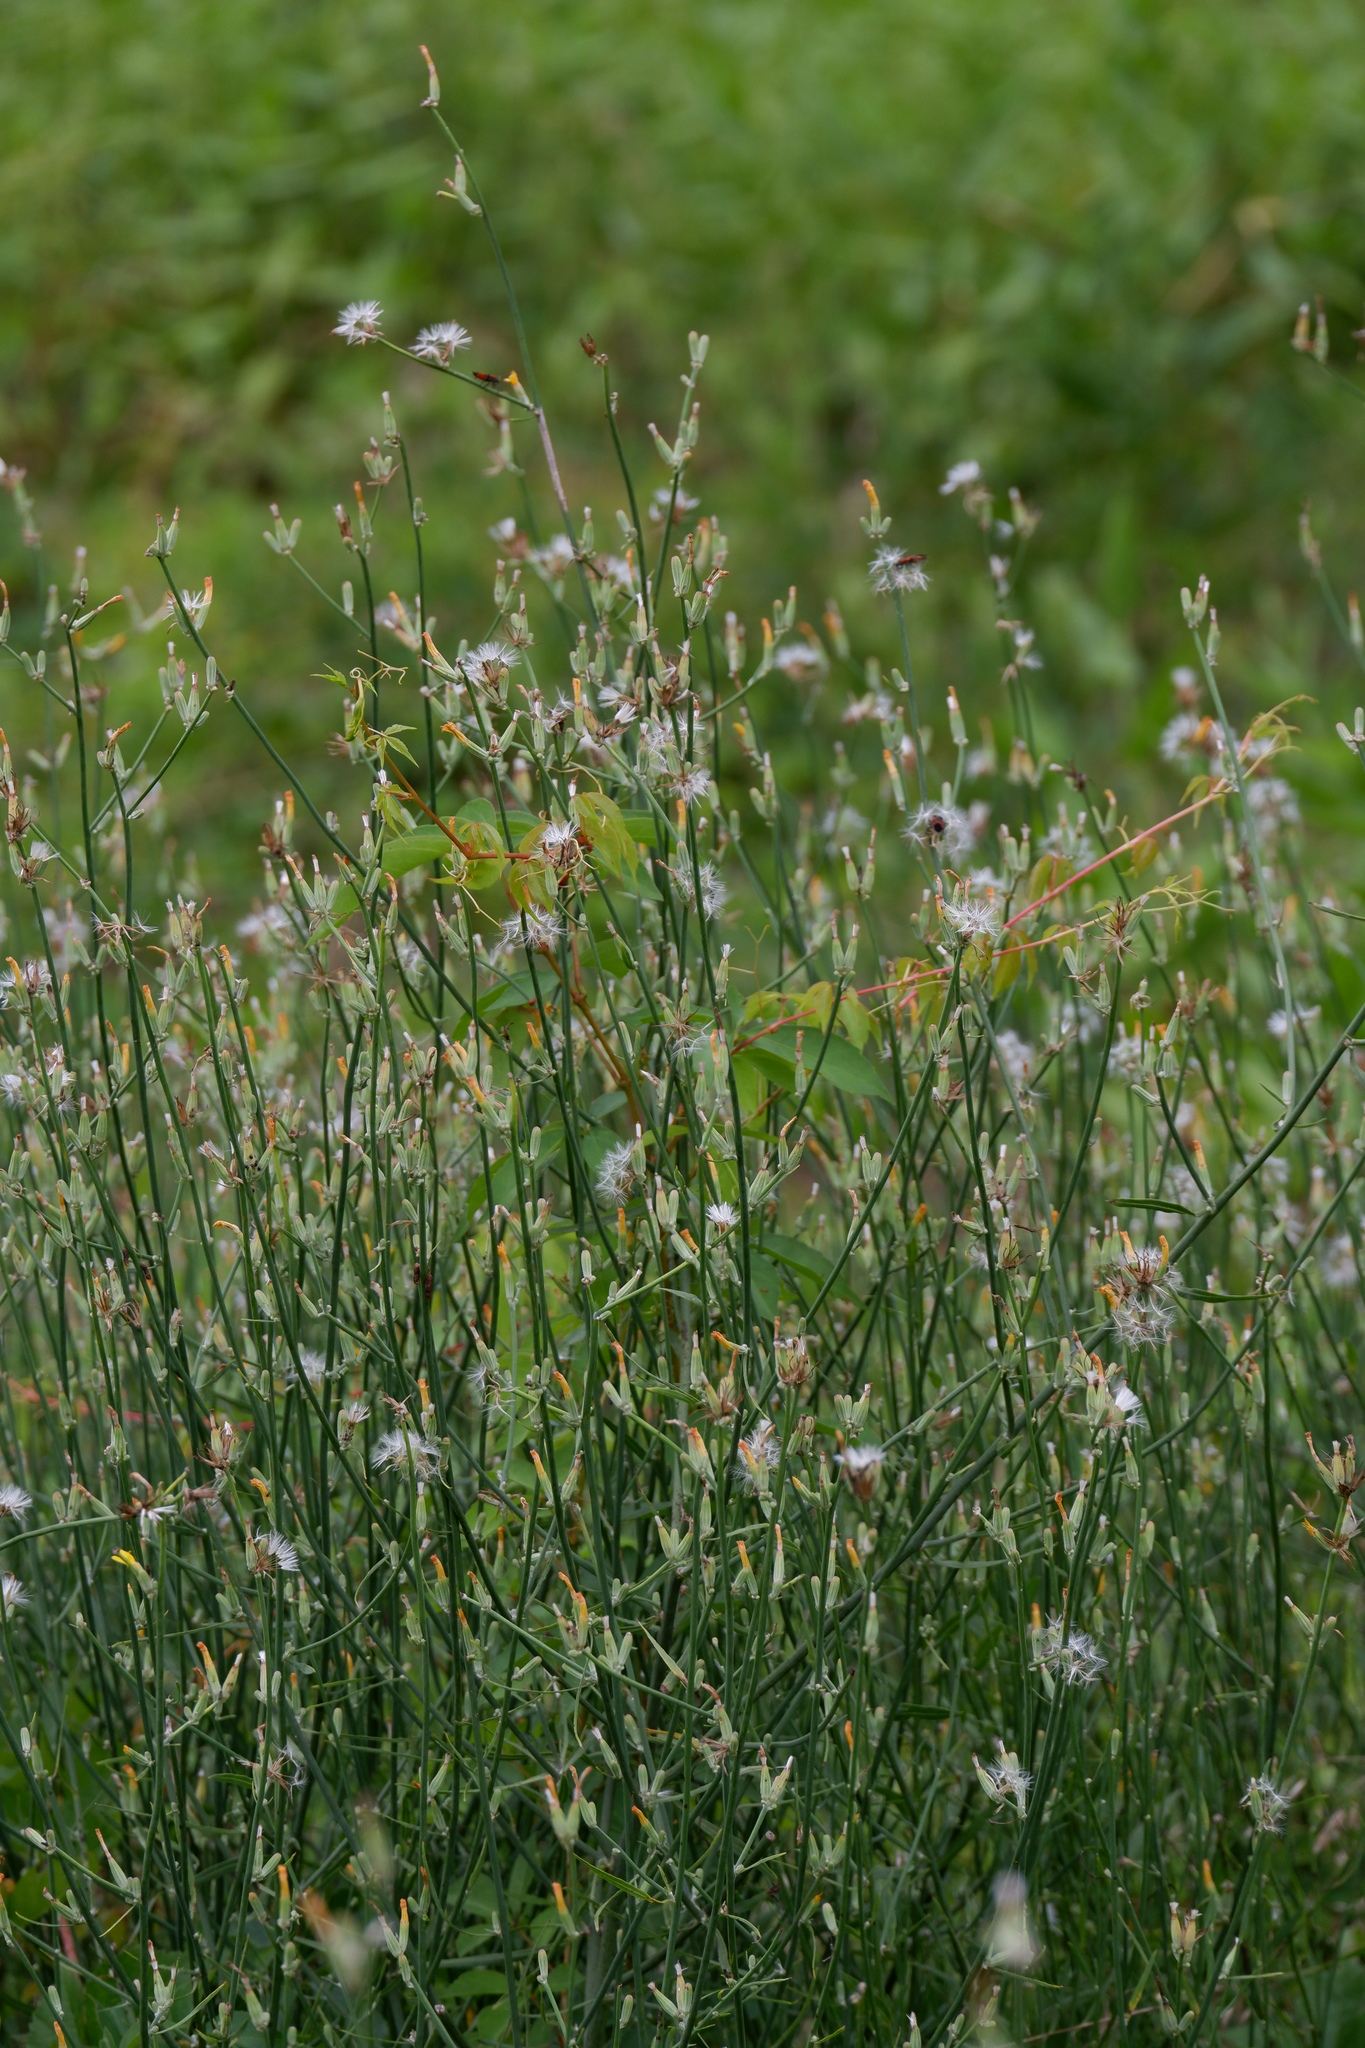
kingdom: Plantae
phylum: Tracheophyta
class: Magnoliopsida
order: Asterales
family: Asteraceae
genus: Chondrilla
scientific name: Chondrilla juncea
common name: Skeleton weed
